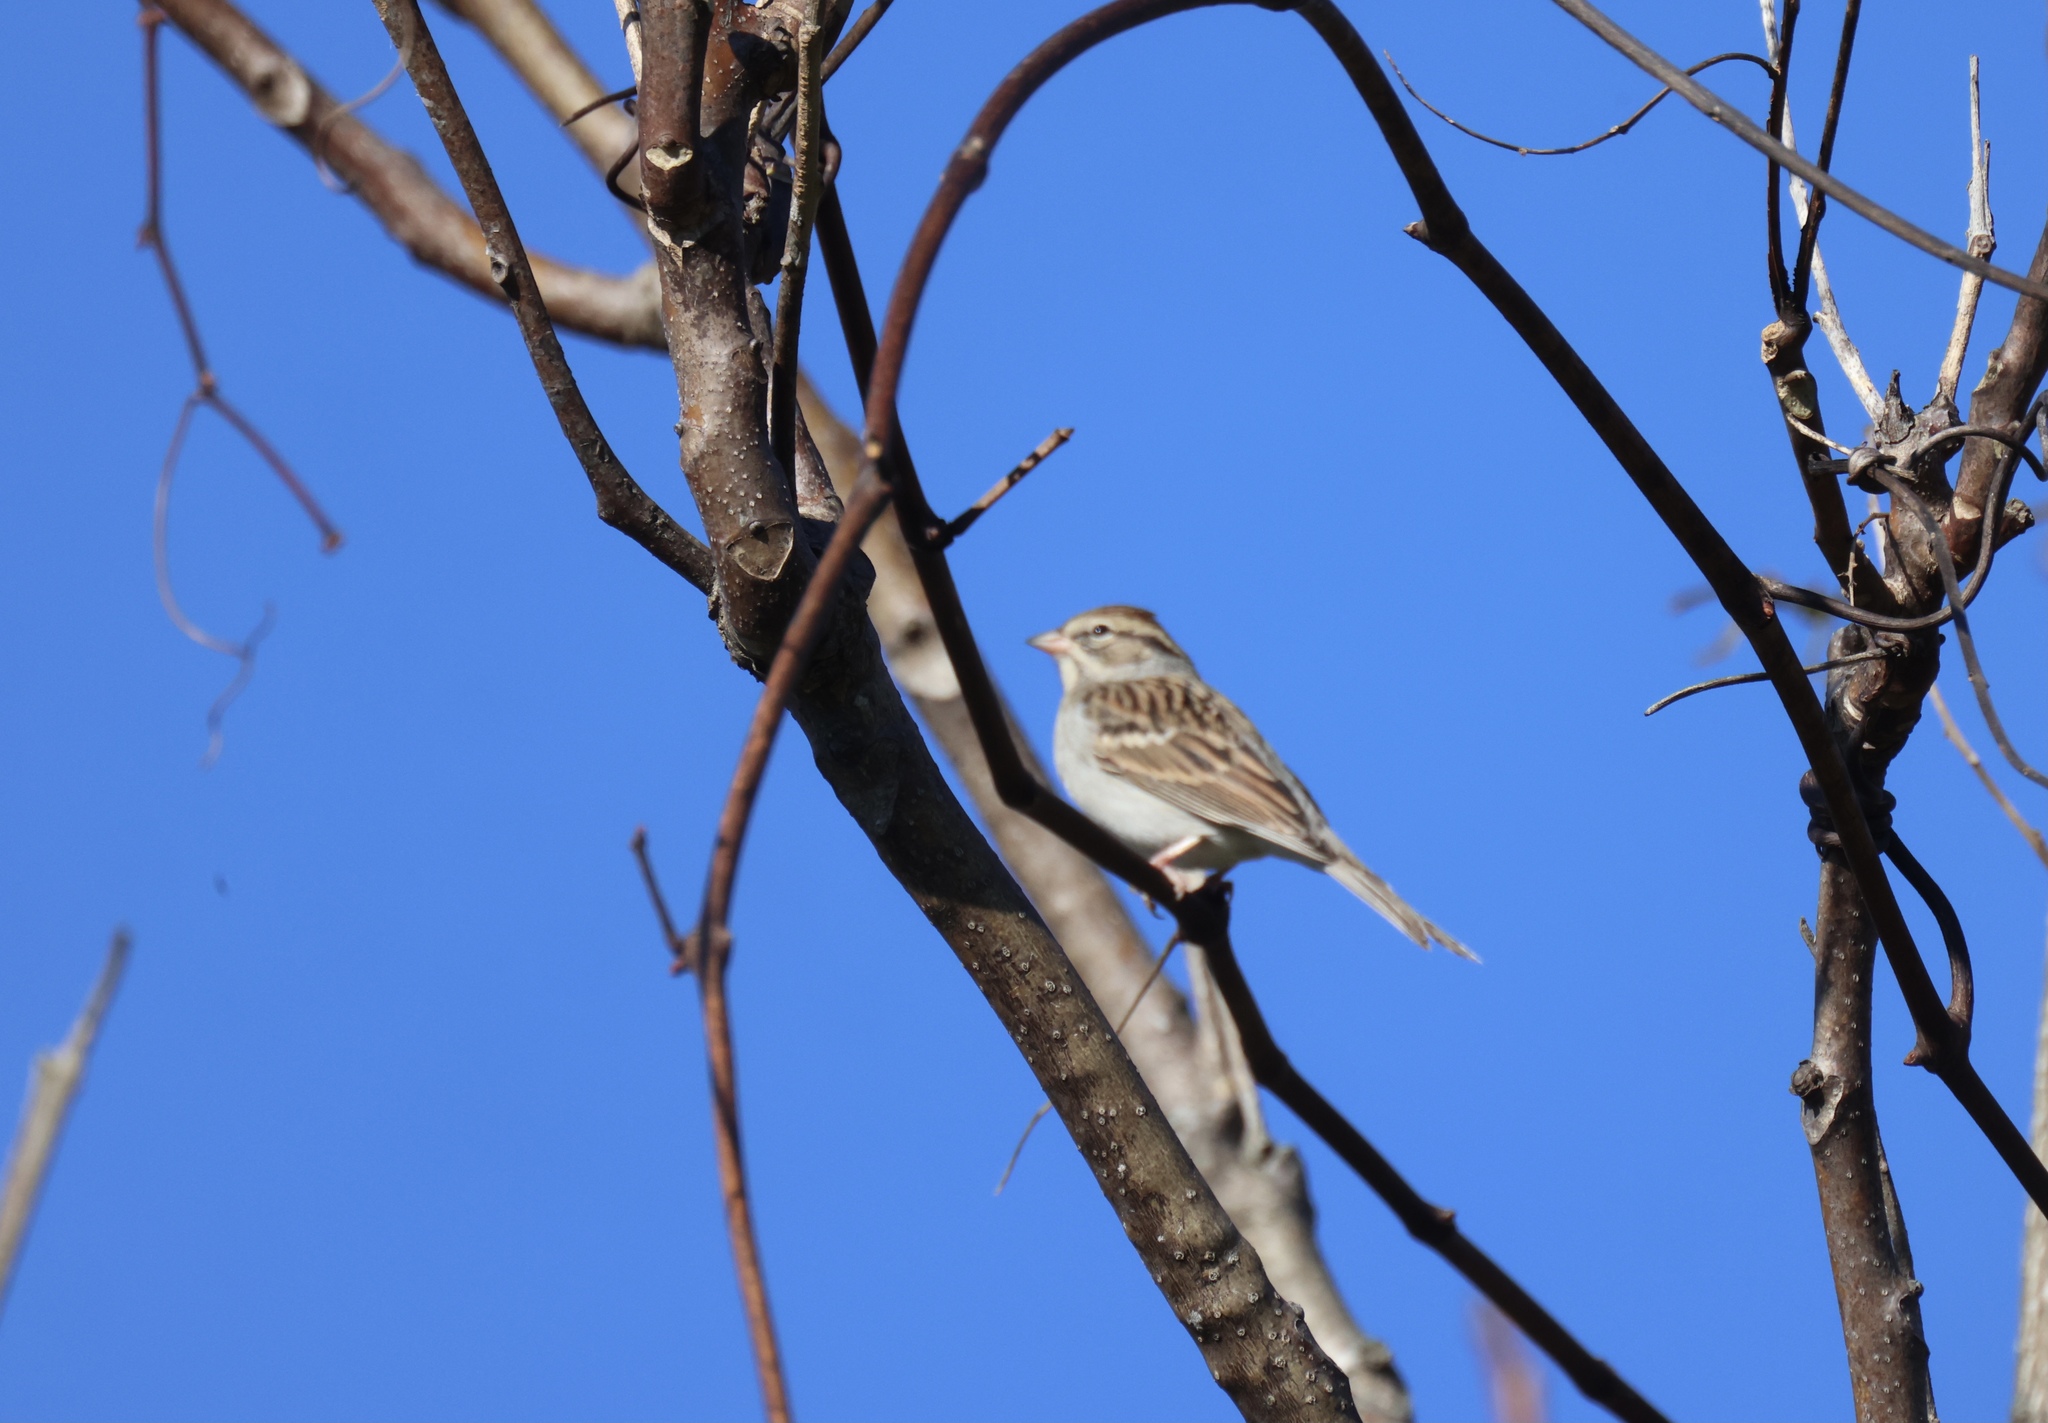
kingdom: Animalia
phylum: Chordata
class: Aves
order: Passeriformes
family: Passerellidae
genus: Spizella
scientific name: Spizella passerina
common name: Chipping sparrow
